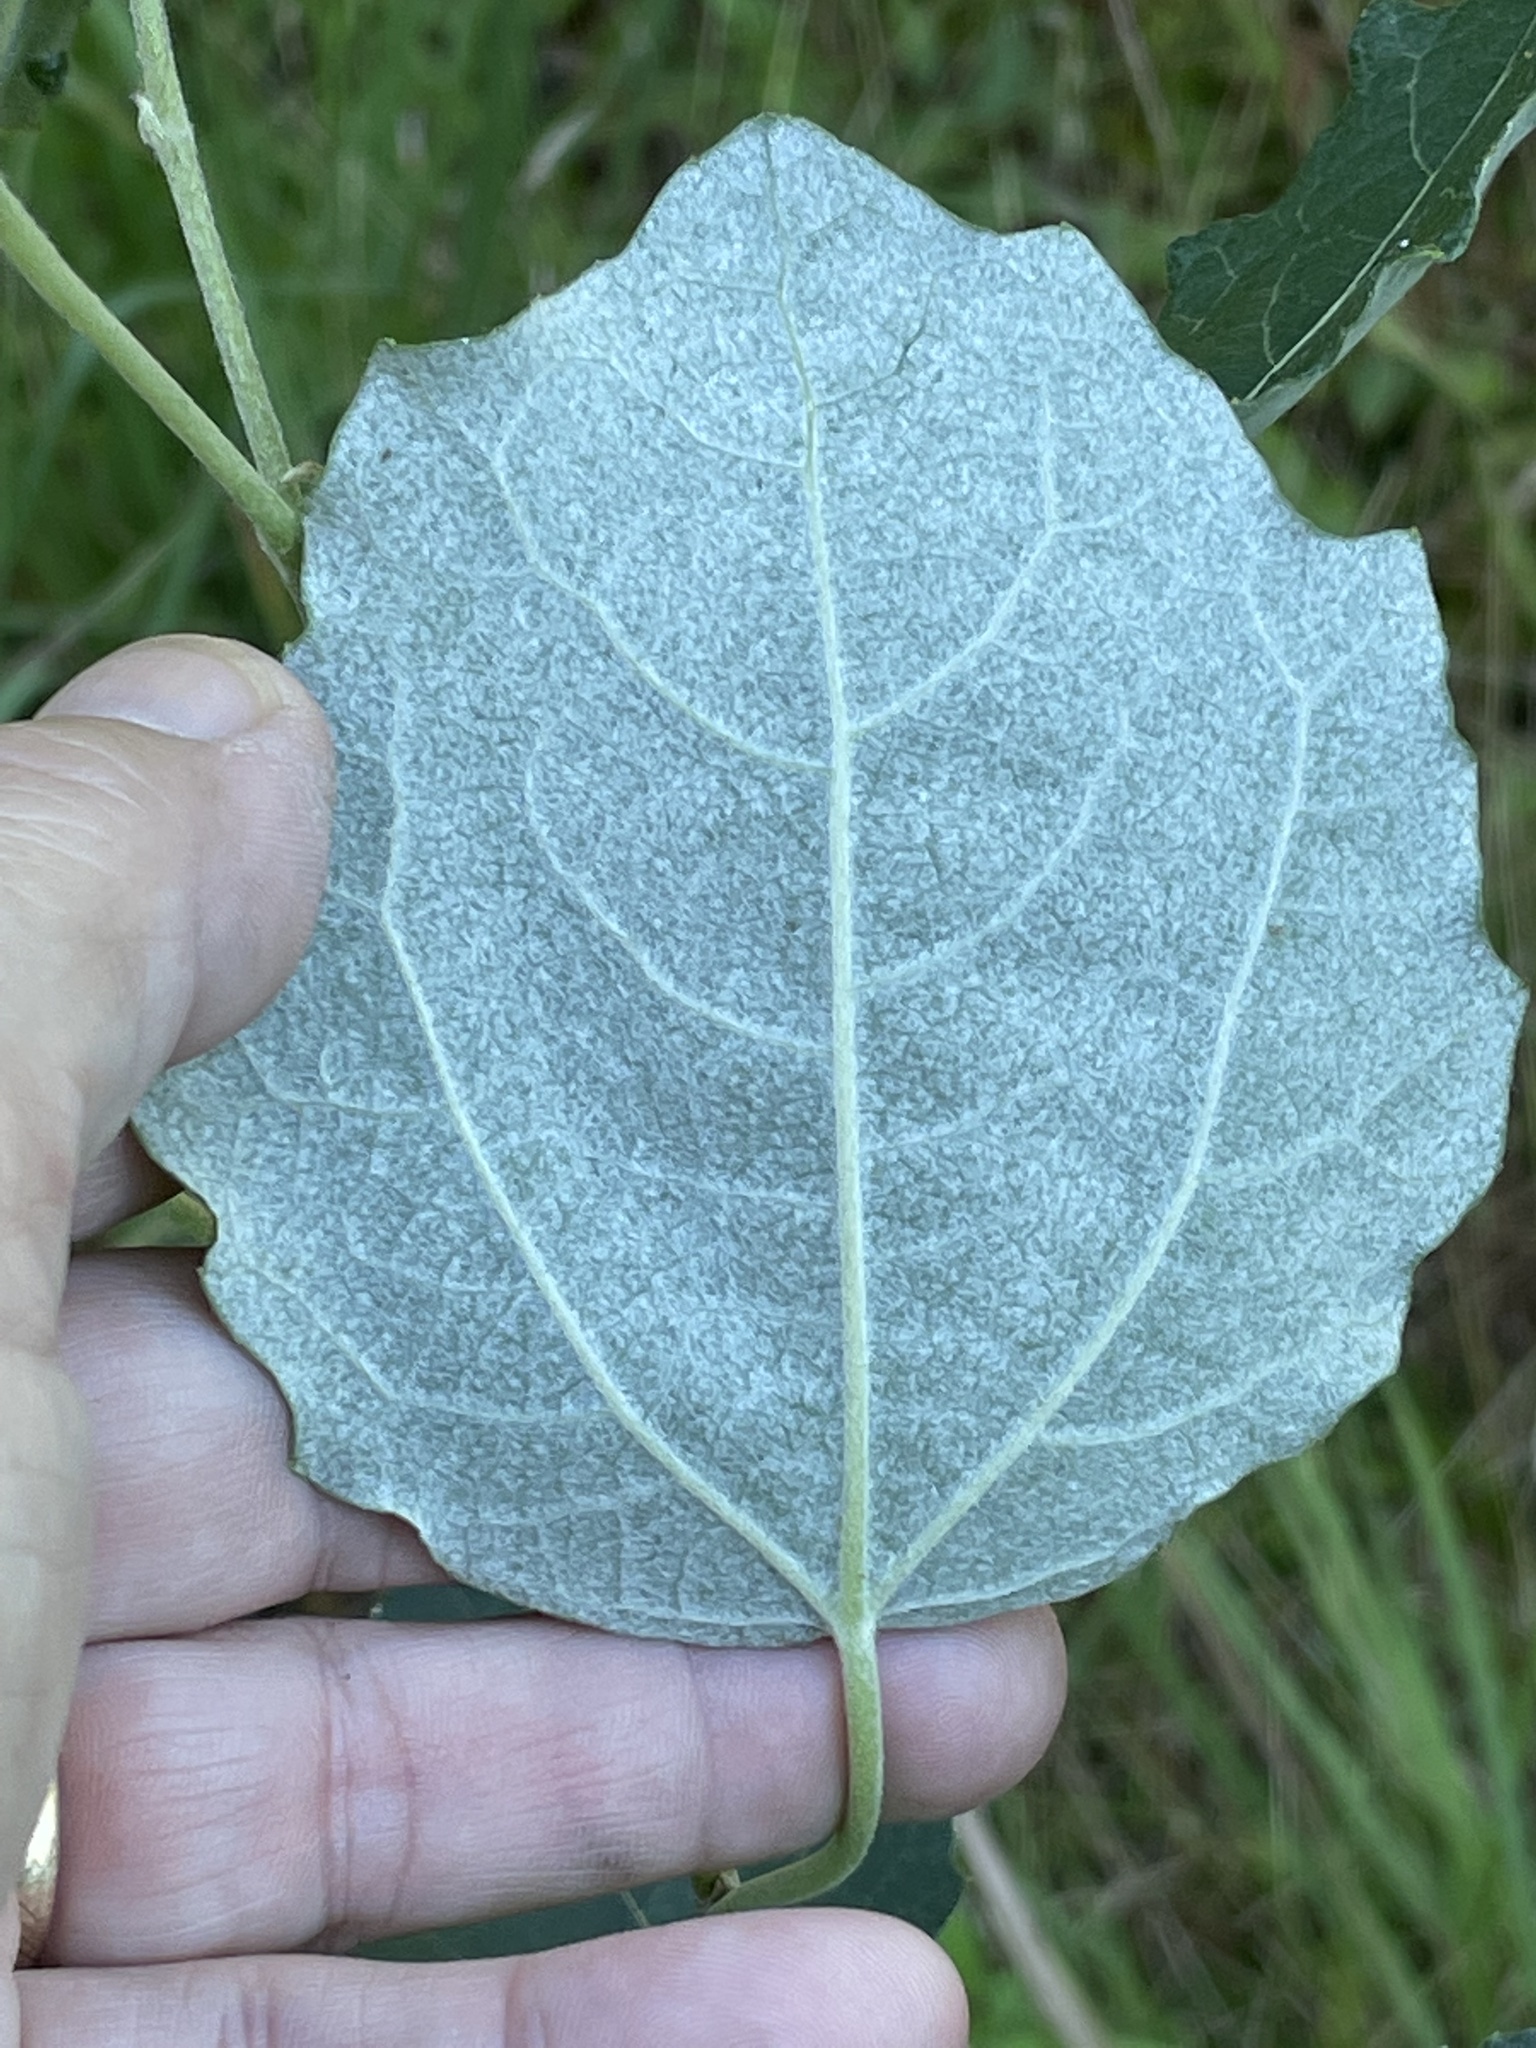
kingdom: Plantae
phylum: Tracheophyta
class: Magnoliopsida
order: Malpighiales
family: Salicaceae
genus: Populus
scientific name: Populus alba
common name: White poplar
